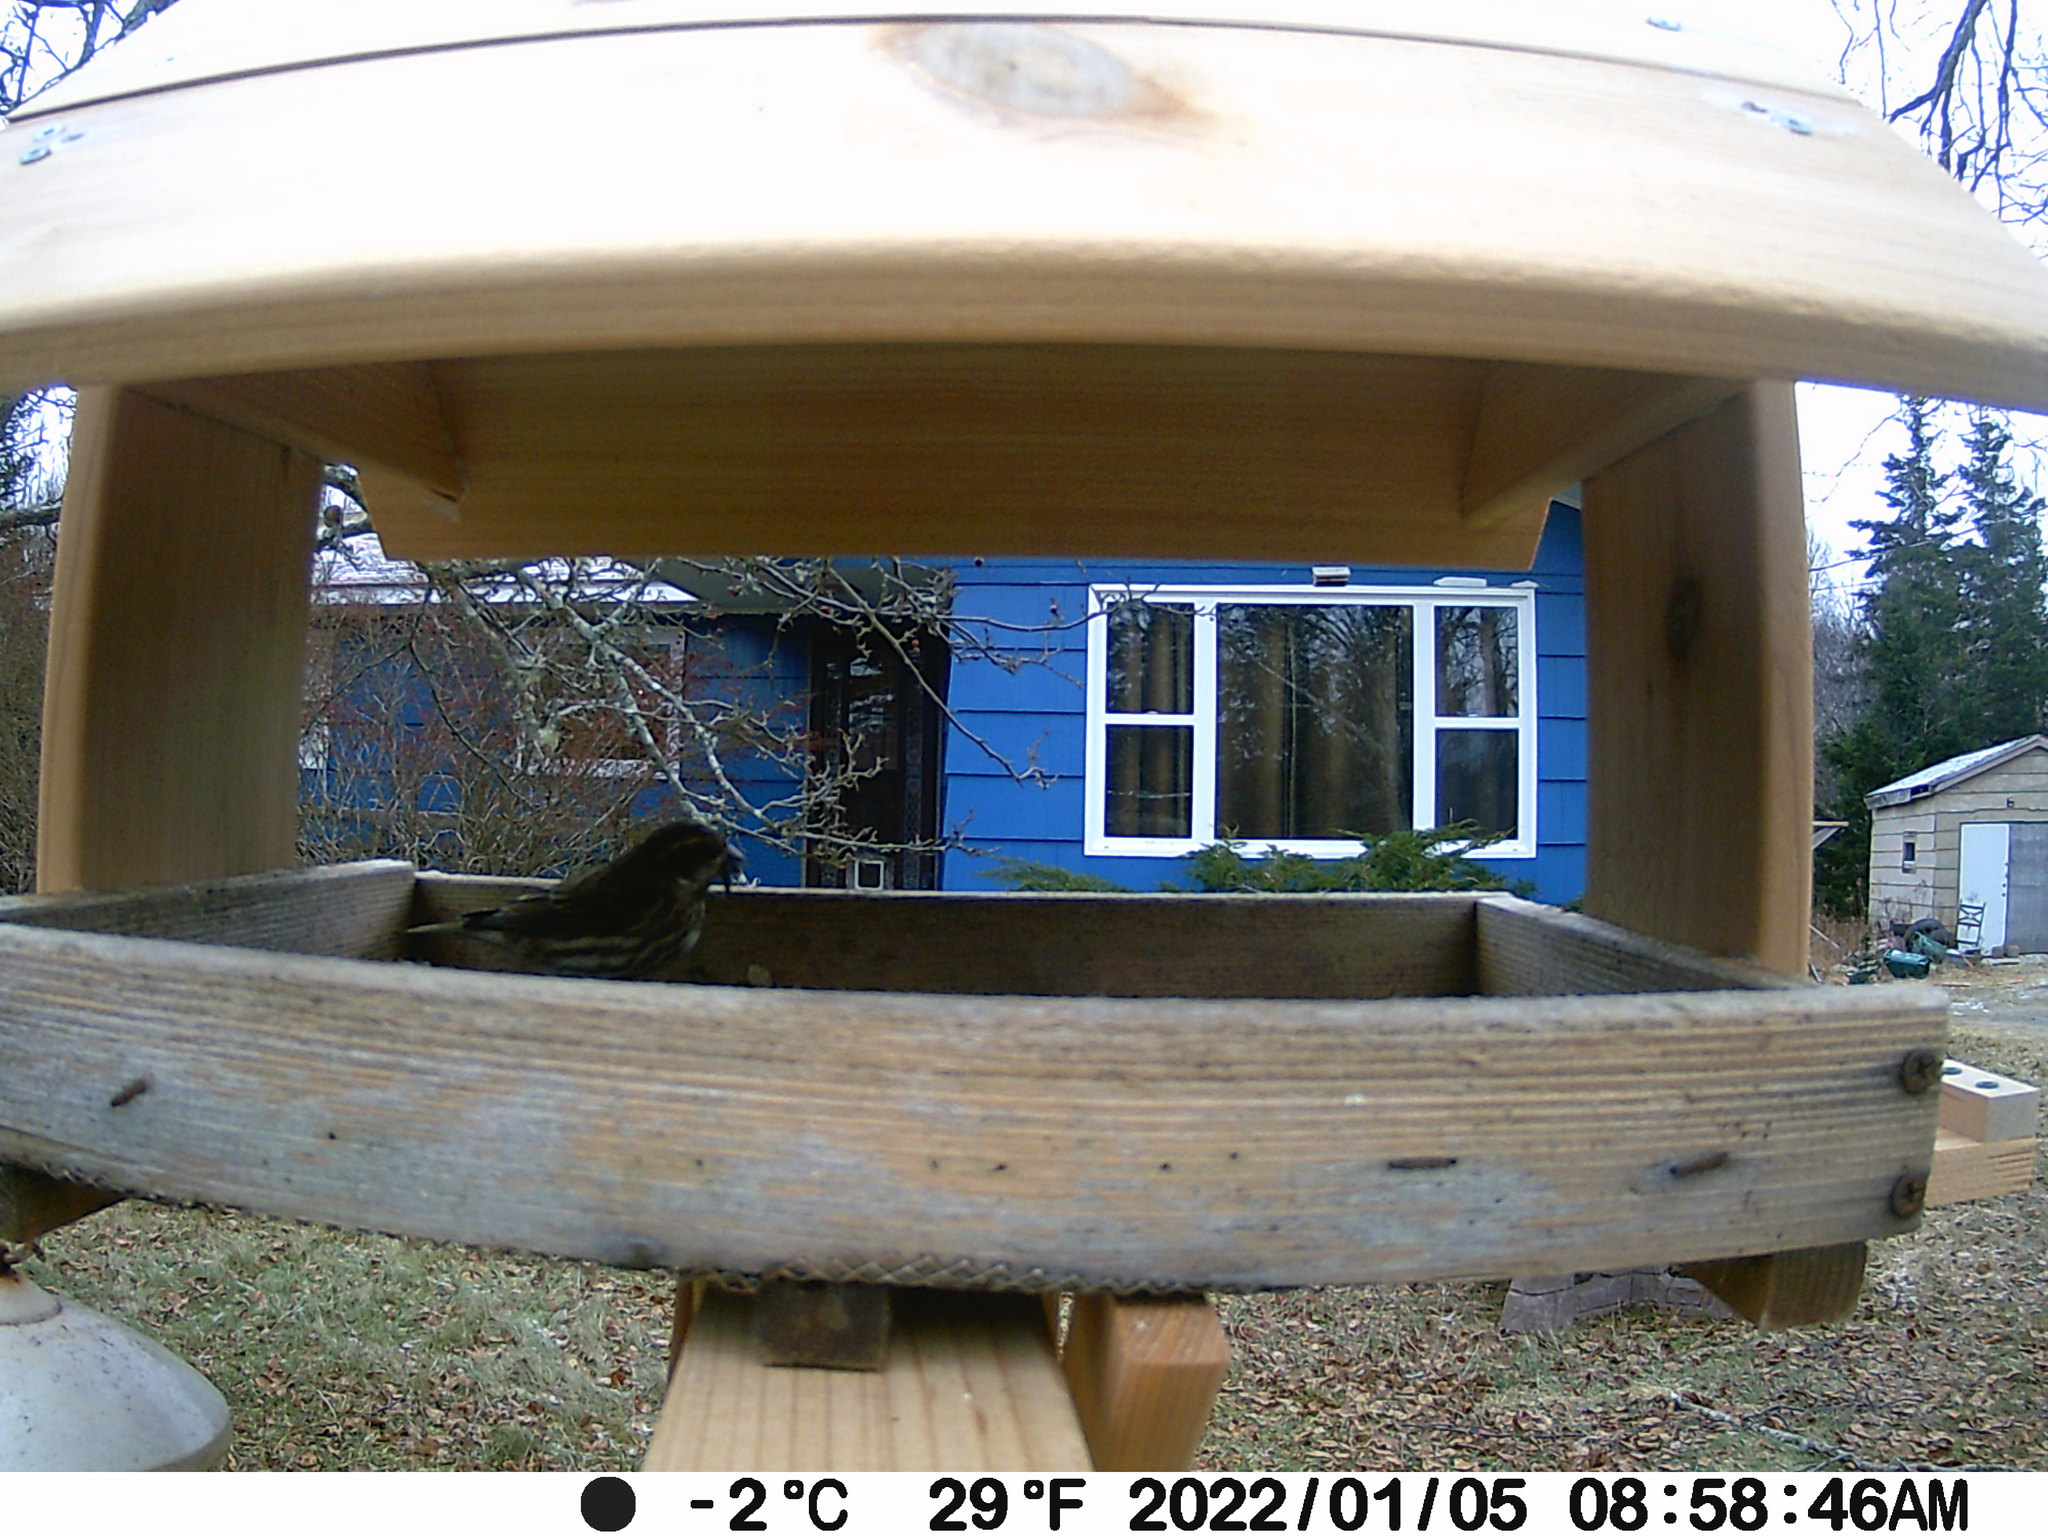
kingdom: Animalia
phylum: Chordata
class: Aves
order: Passeriformes
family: Fringillidae
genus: Haemorhous
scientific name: Haemorhous purpureus
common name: Purple finch
